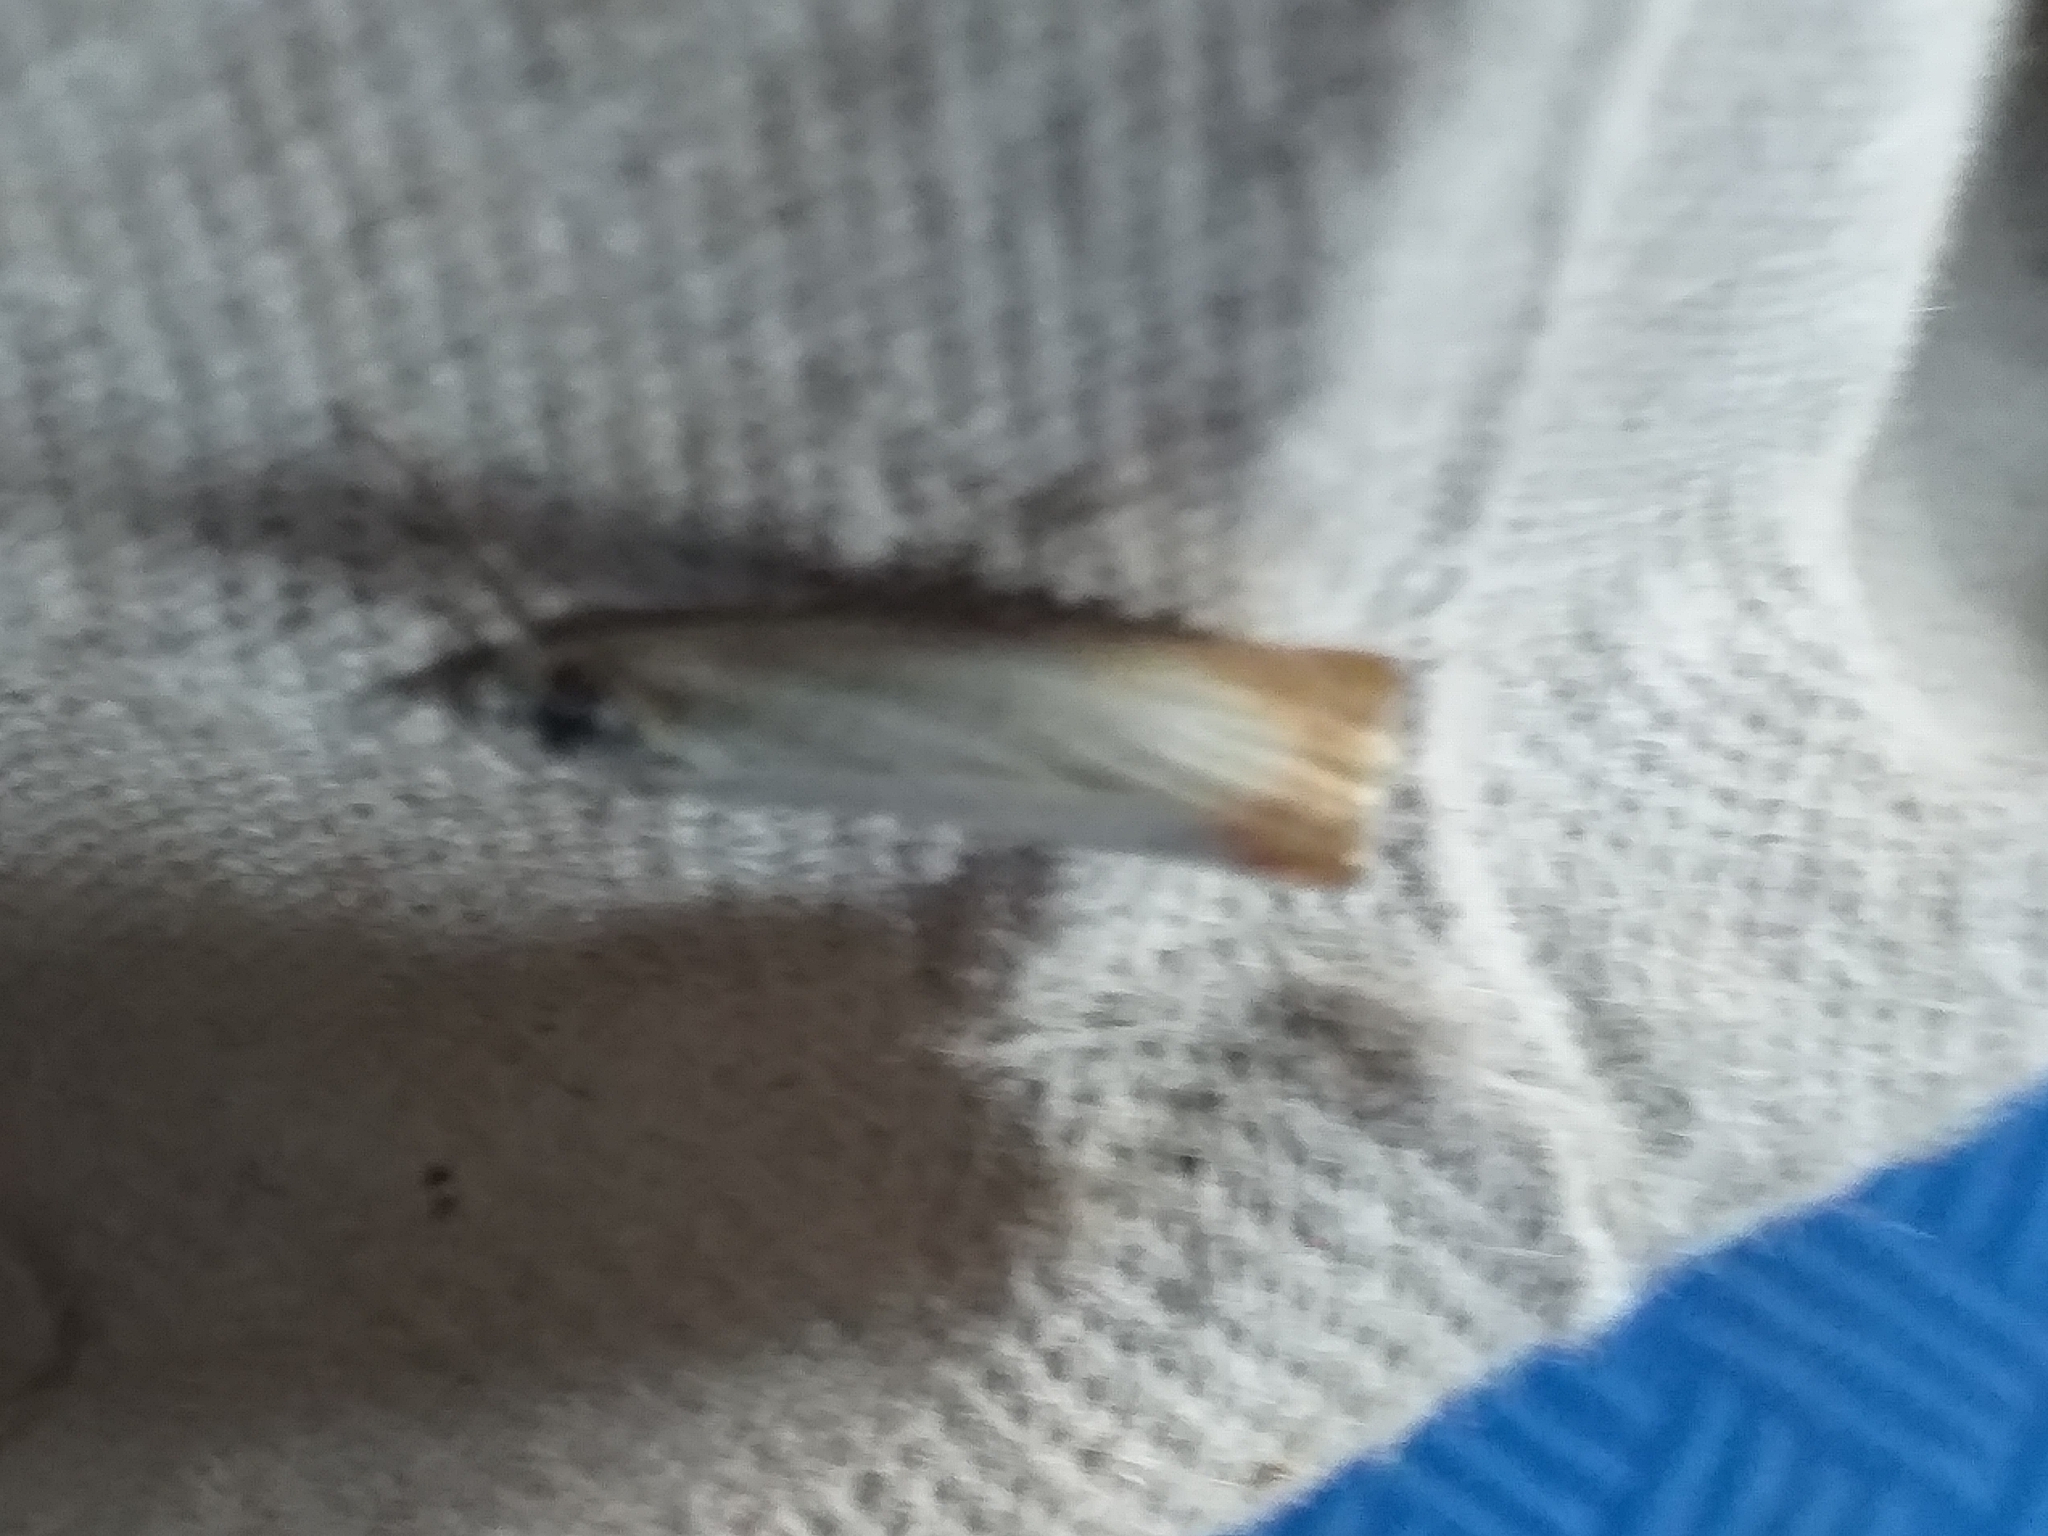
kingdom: Animalia
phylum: Arthropoda
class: Insecta
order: Lepidoptera
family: Crambidae
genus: Chrysoteuchia
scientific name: Chrysoteuchia culmella
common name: Garden grass-veneer
